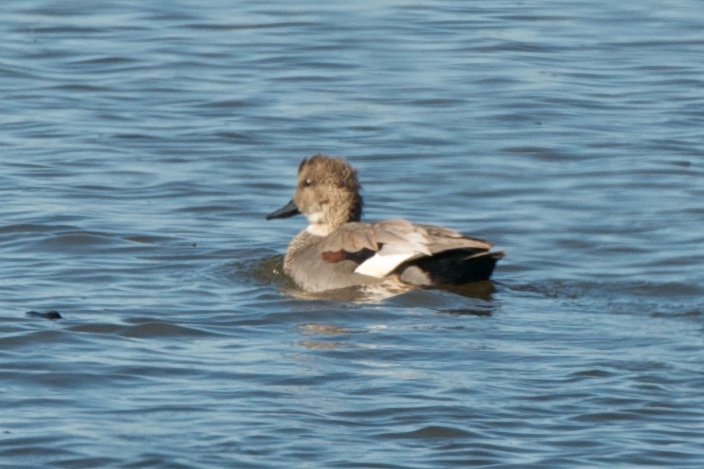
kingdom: Animalia
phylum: Chordata
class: Aves
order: Anseriformes
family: Anatidae
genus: Mareca
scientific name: Mareca strepera
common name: Gadwall
